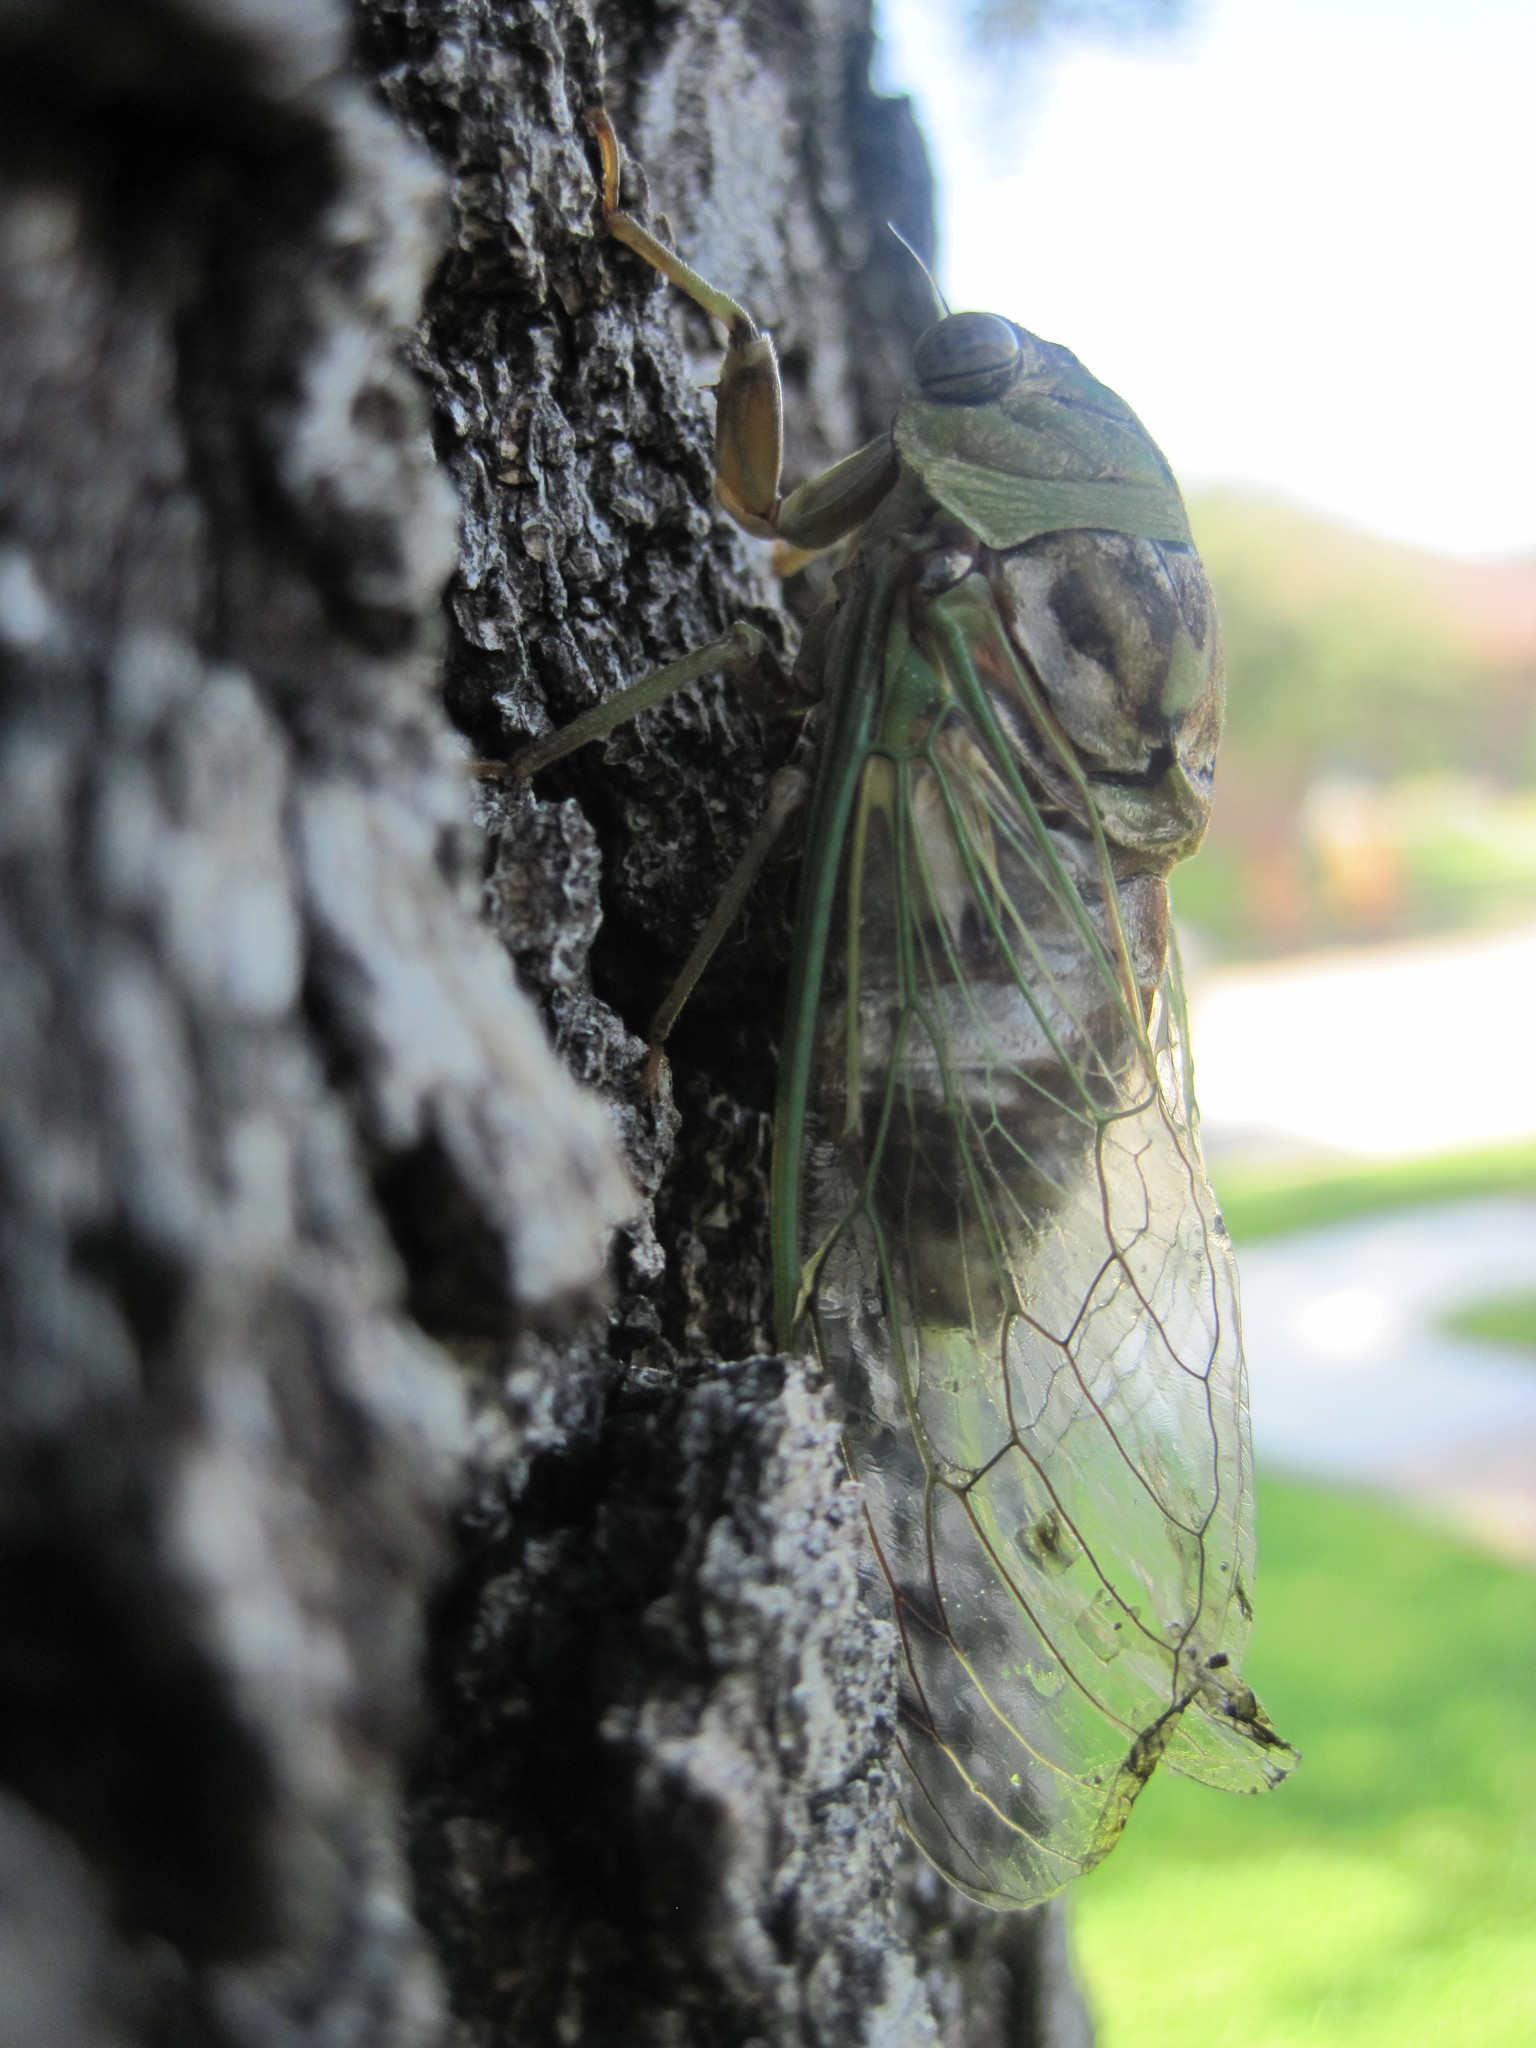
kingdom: Animalia
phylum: Arthropoda
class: Insecta
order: Hemiptera
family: Cicadidae
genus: Megatibicen
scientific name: Megatibicen resh
